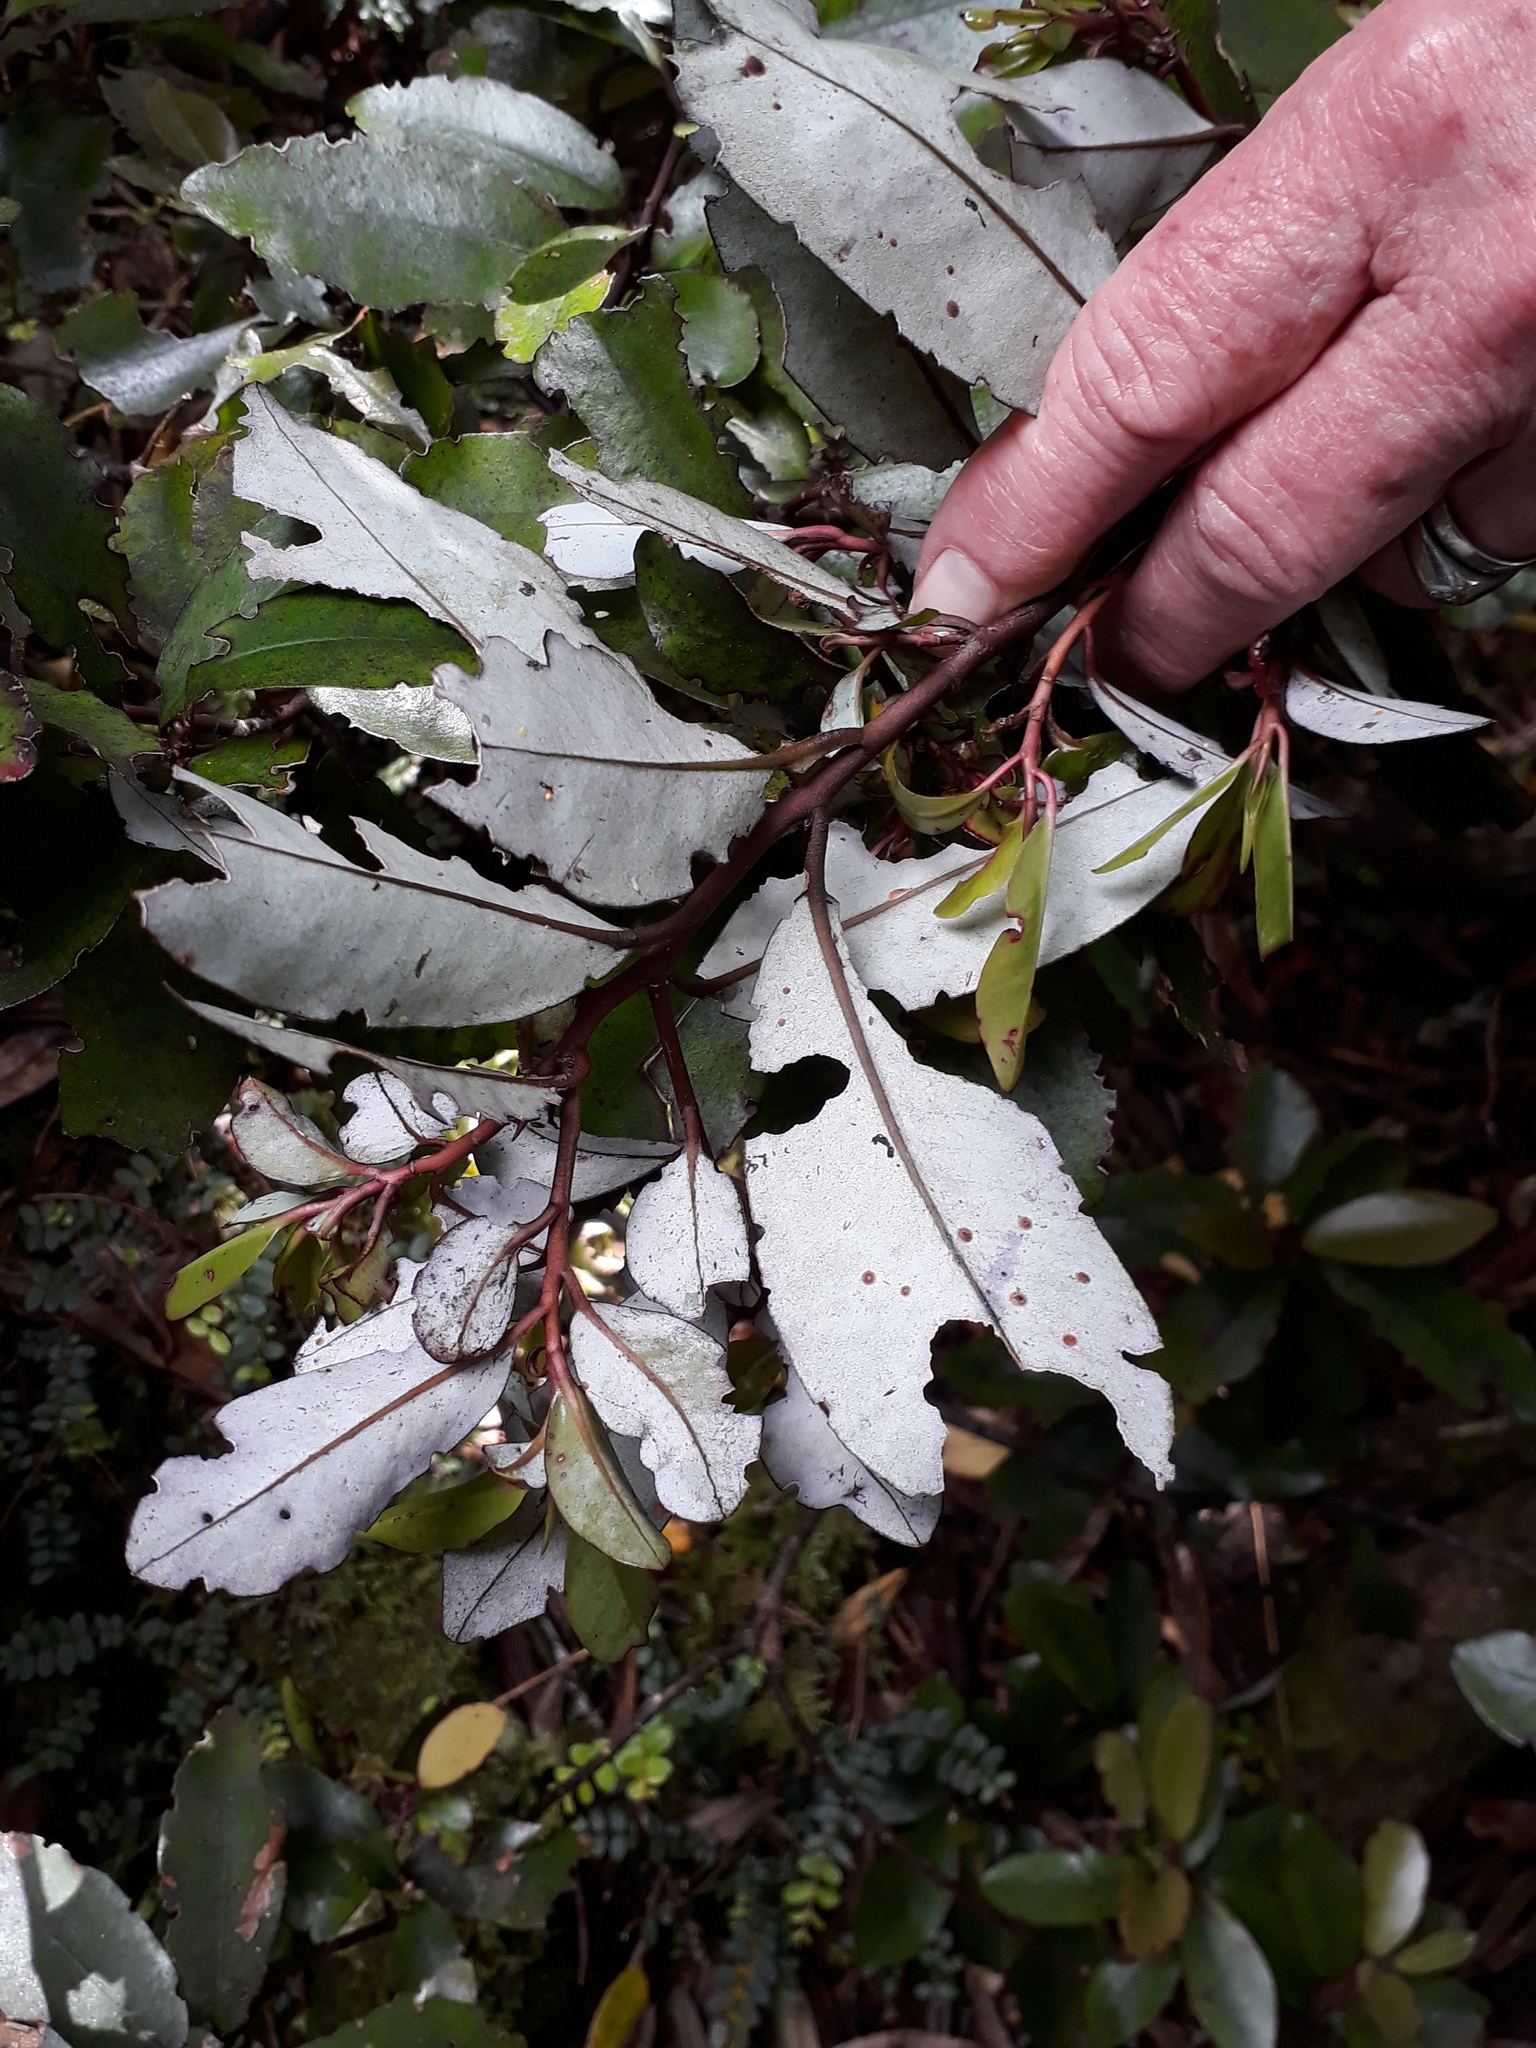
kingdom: Plantae
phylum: Tracheophyta
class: Magnoliopsida
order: Canellales
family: Winteraceae
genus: Pseudowintera
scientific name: Pseudowintera colorata
